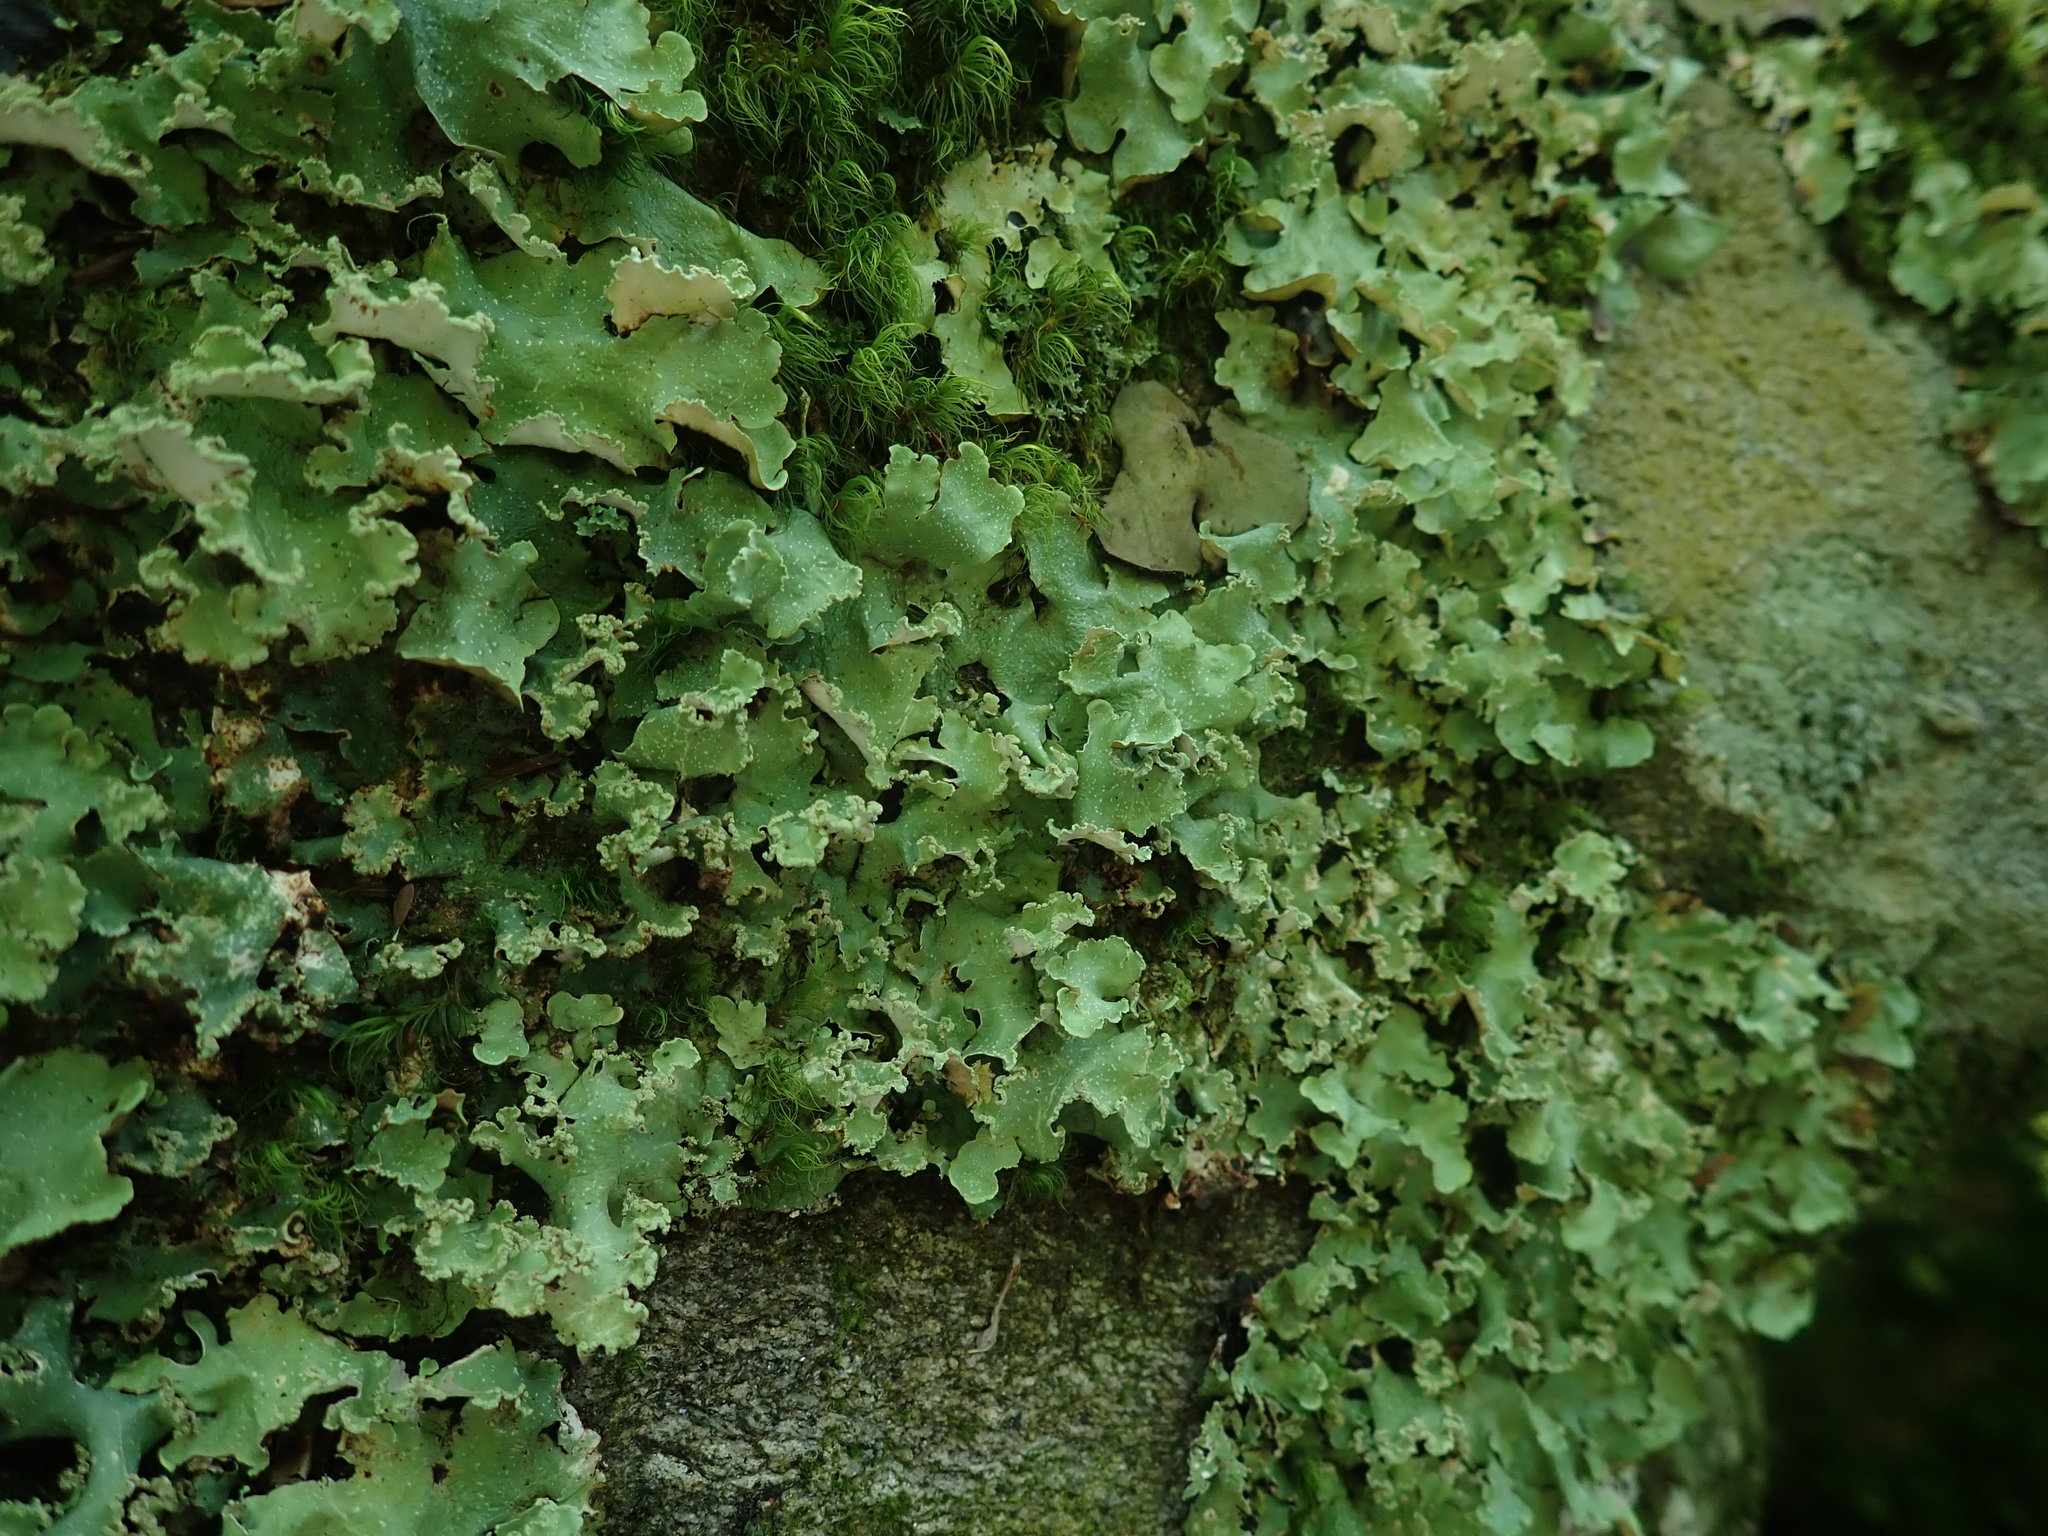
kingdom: Fungi
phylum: Ascomycota
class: Lecanoromycetes
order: Lecanorales
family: Parmeliaceae
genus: Usnocetraria
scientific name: Usnocetraria oakesiana
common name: Yellow ribbon lichen
